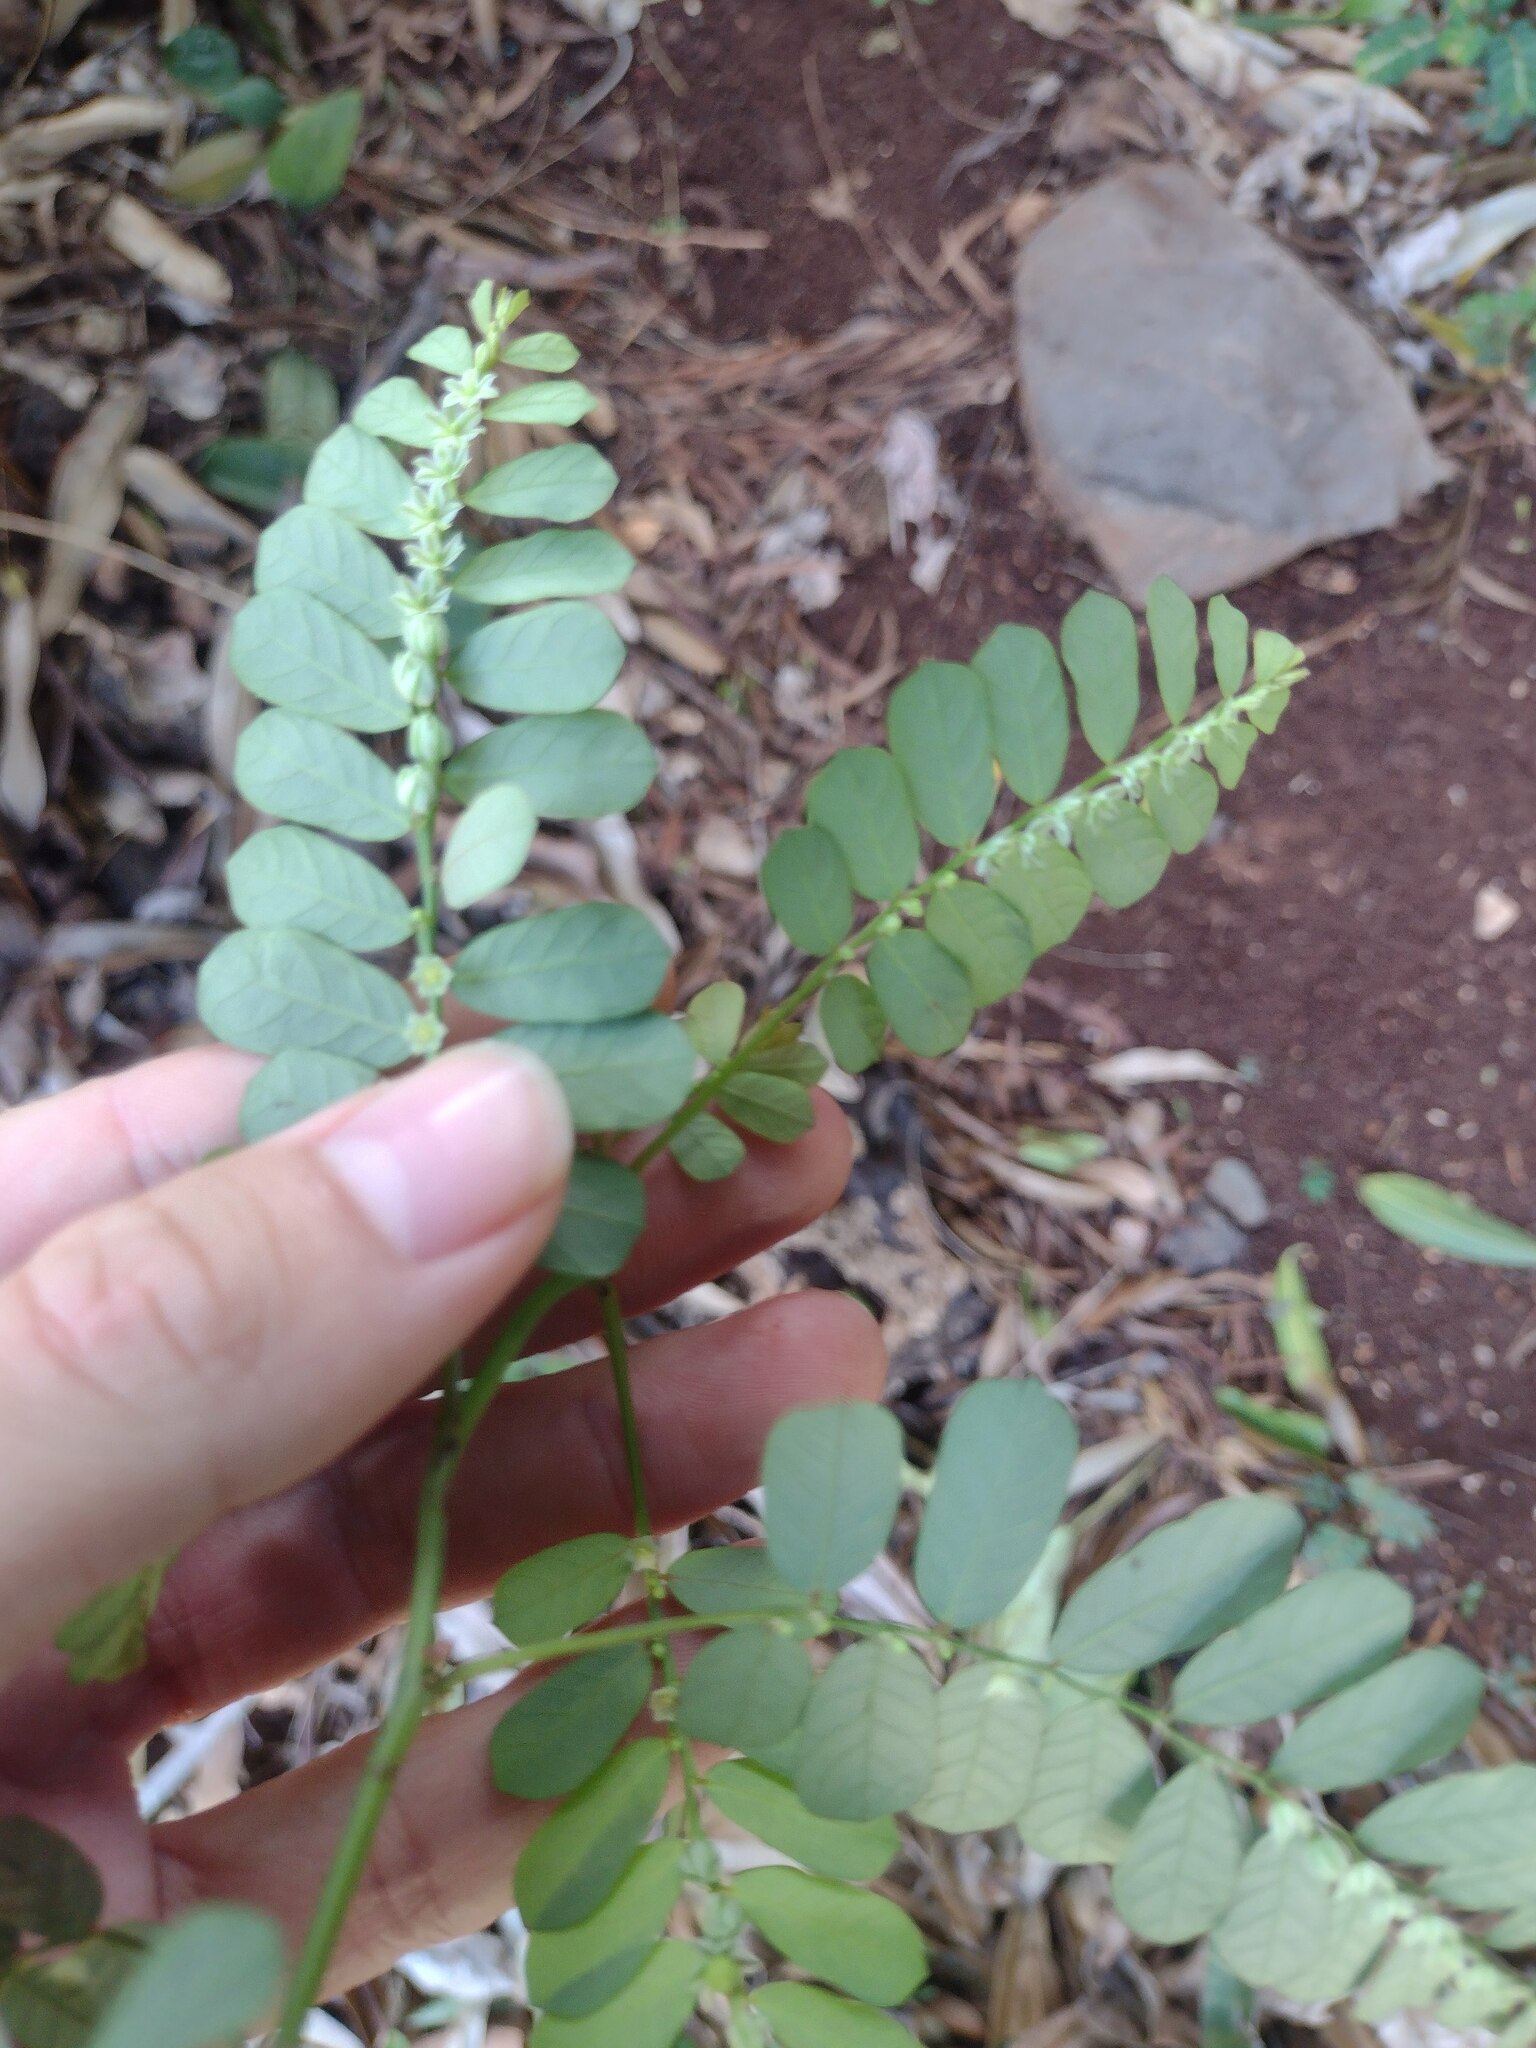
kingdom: Plantae
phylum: Tracheophyta
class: Magnoliopsida
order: Malpighiales
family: Phyllanthaceae
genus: Phyllanthus
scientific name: Phyllanthus leucanthus
